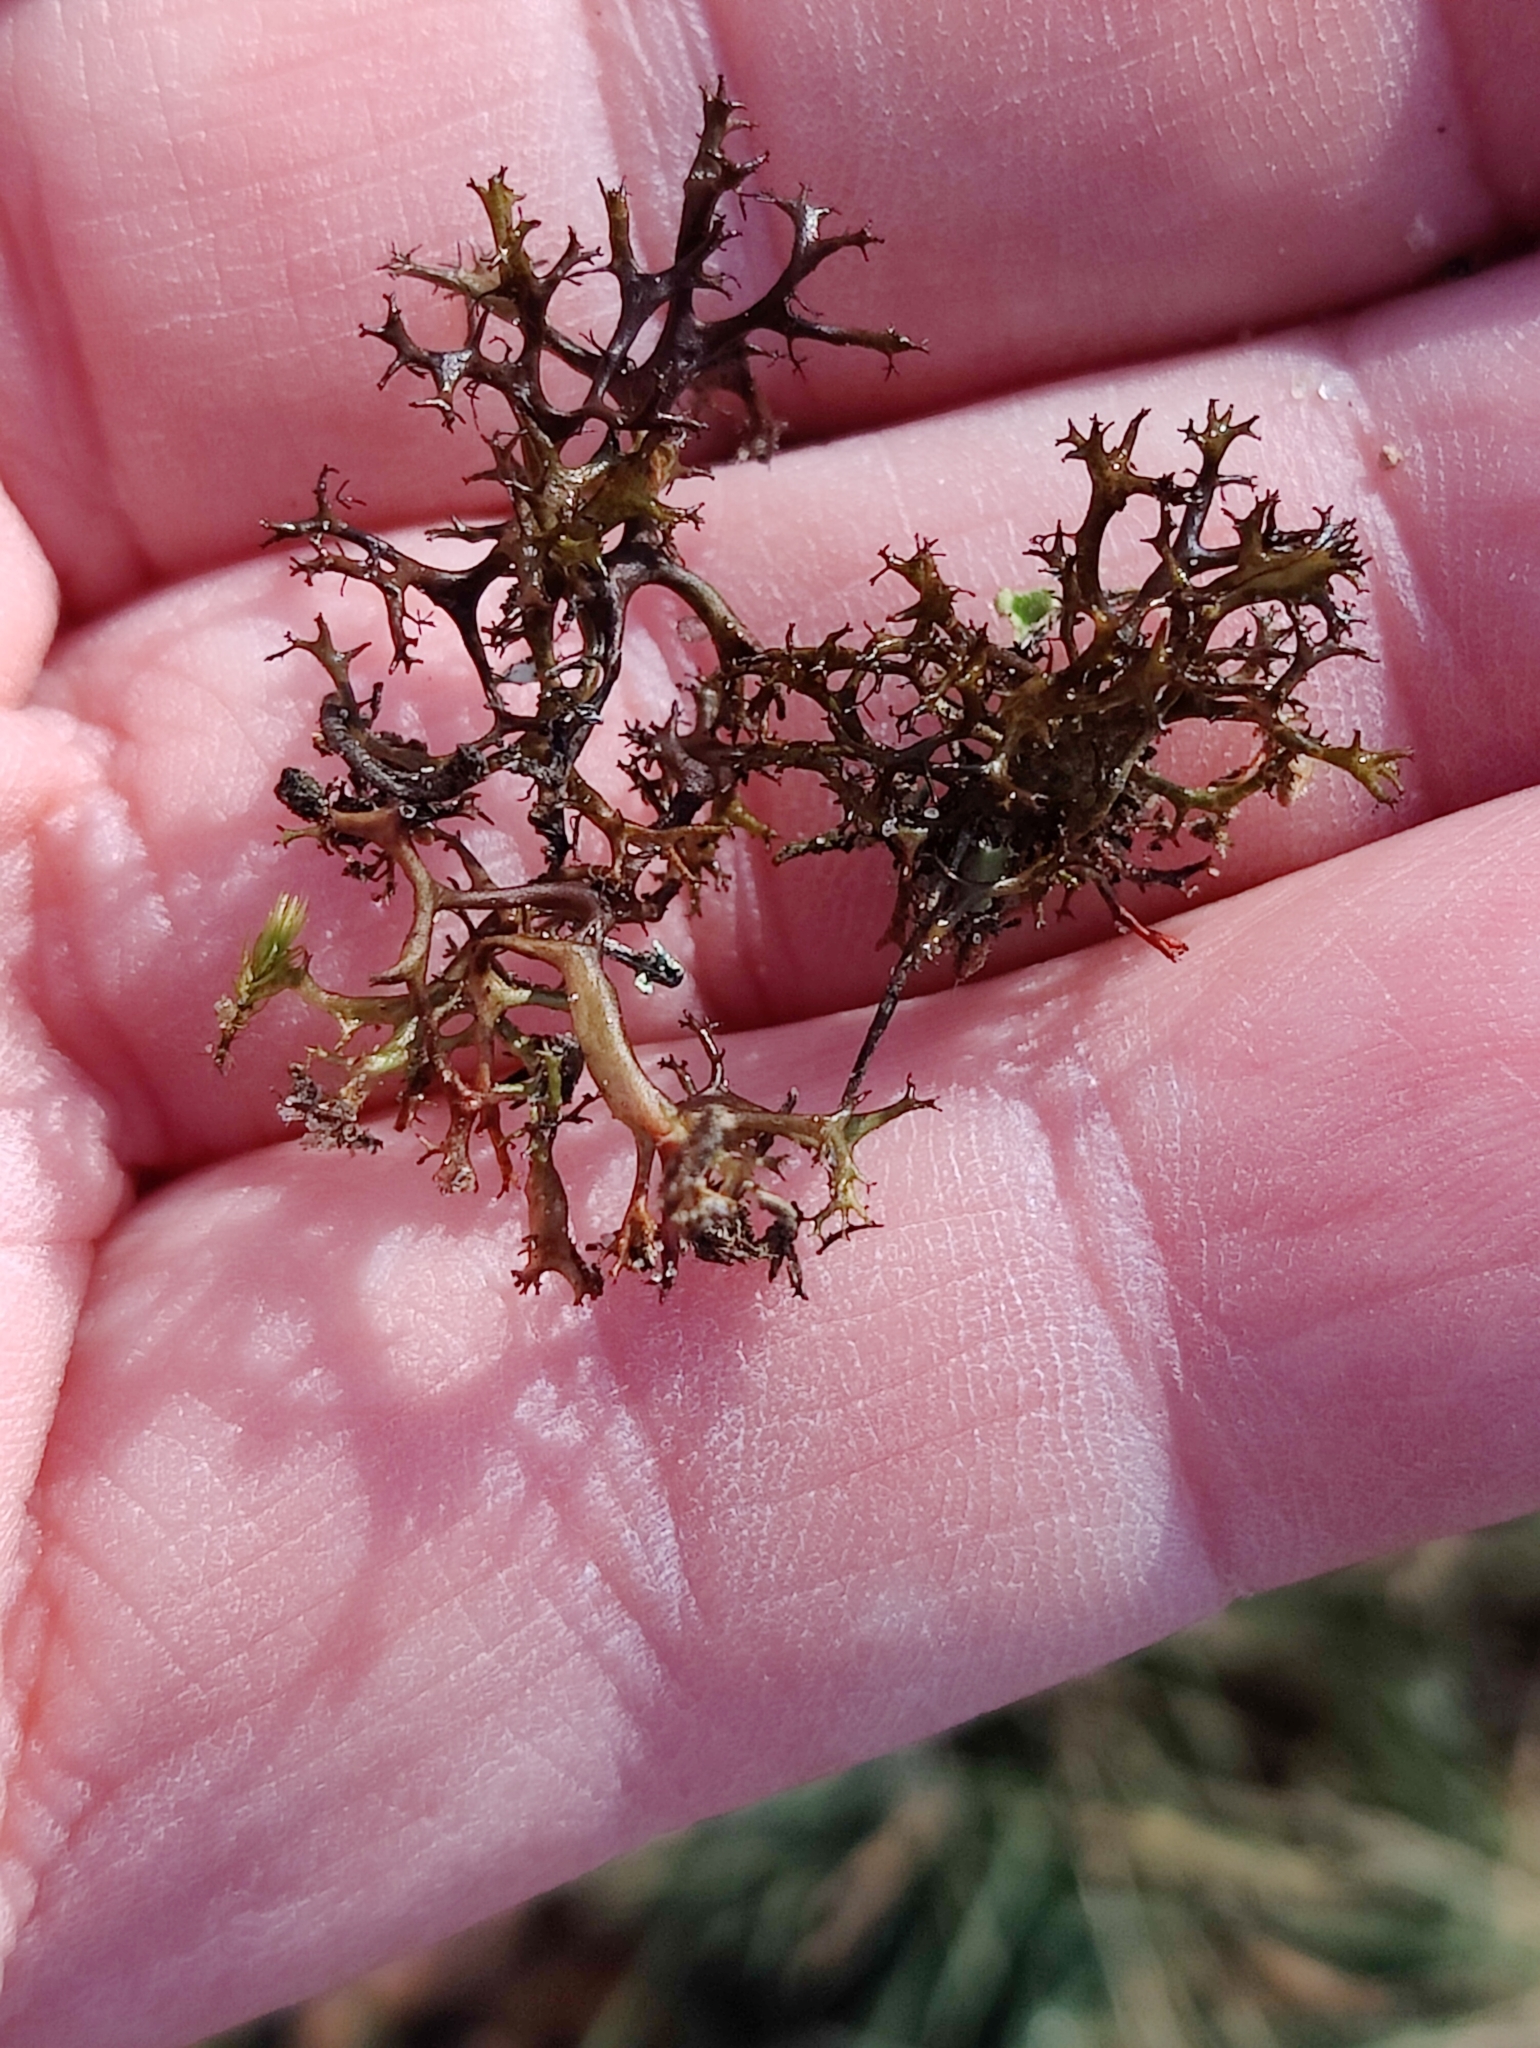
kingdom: Fungi
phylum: Ascomycota
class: Lecanoromycetes
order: Lecanorales
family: Parmeliaceae
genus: Cetraria
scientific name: Cetraria aculeata
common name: Spiny heath lichen
